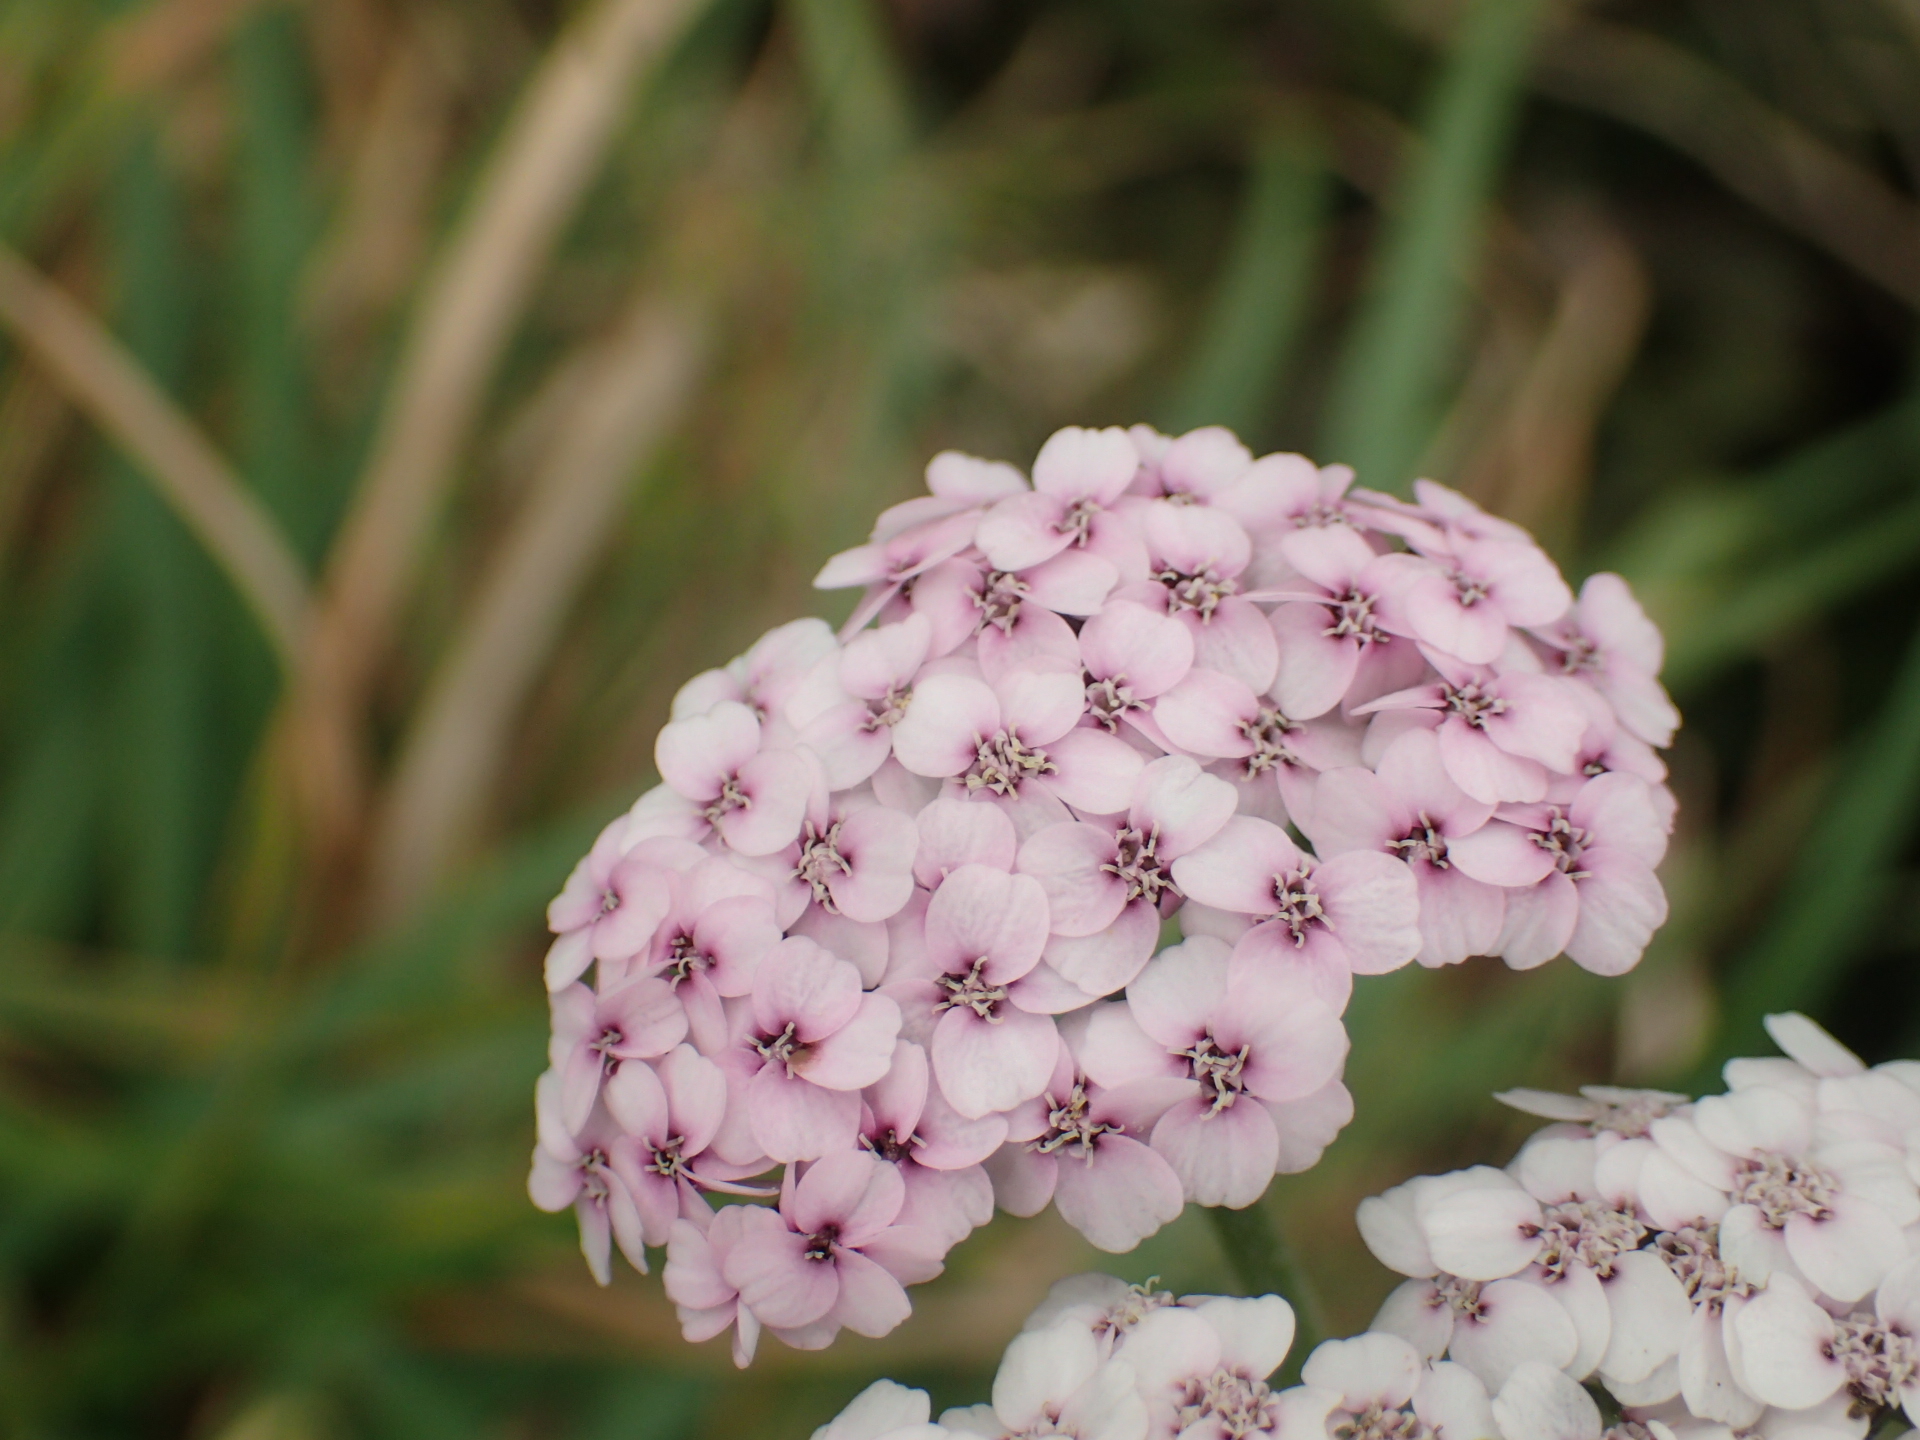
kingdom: Plantae
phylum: Tracheophyta
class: Magnoliopsida
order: Asterales
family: Asteraceae
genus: Achillea
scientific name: Achillea millefolium
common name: Yarrow
